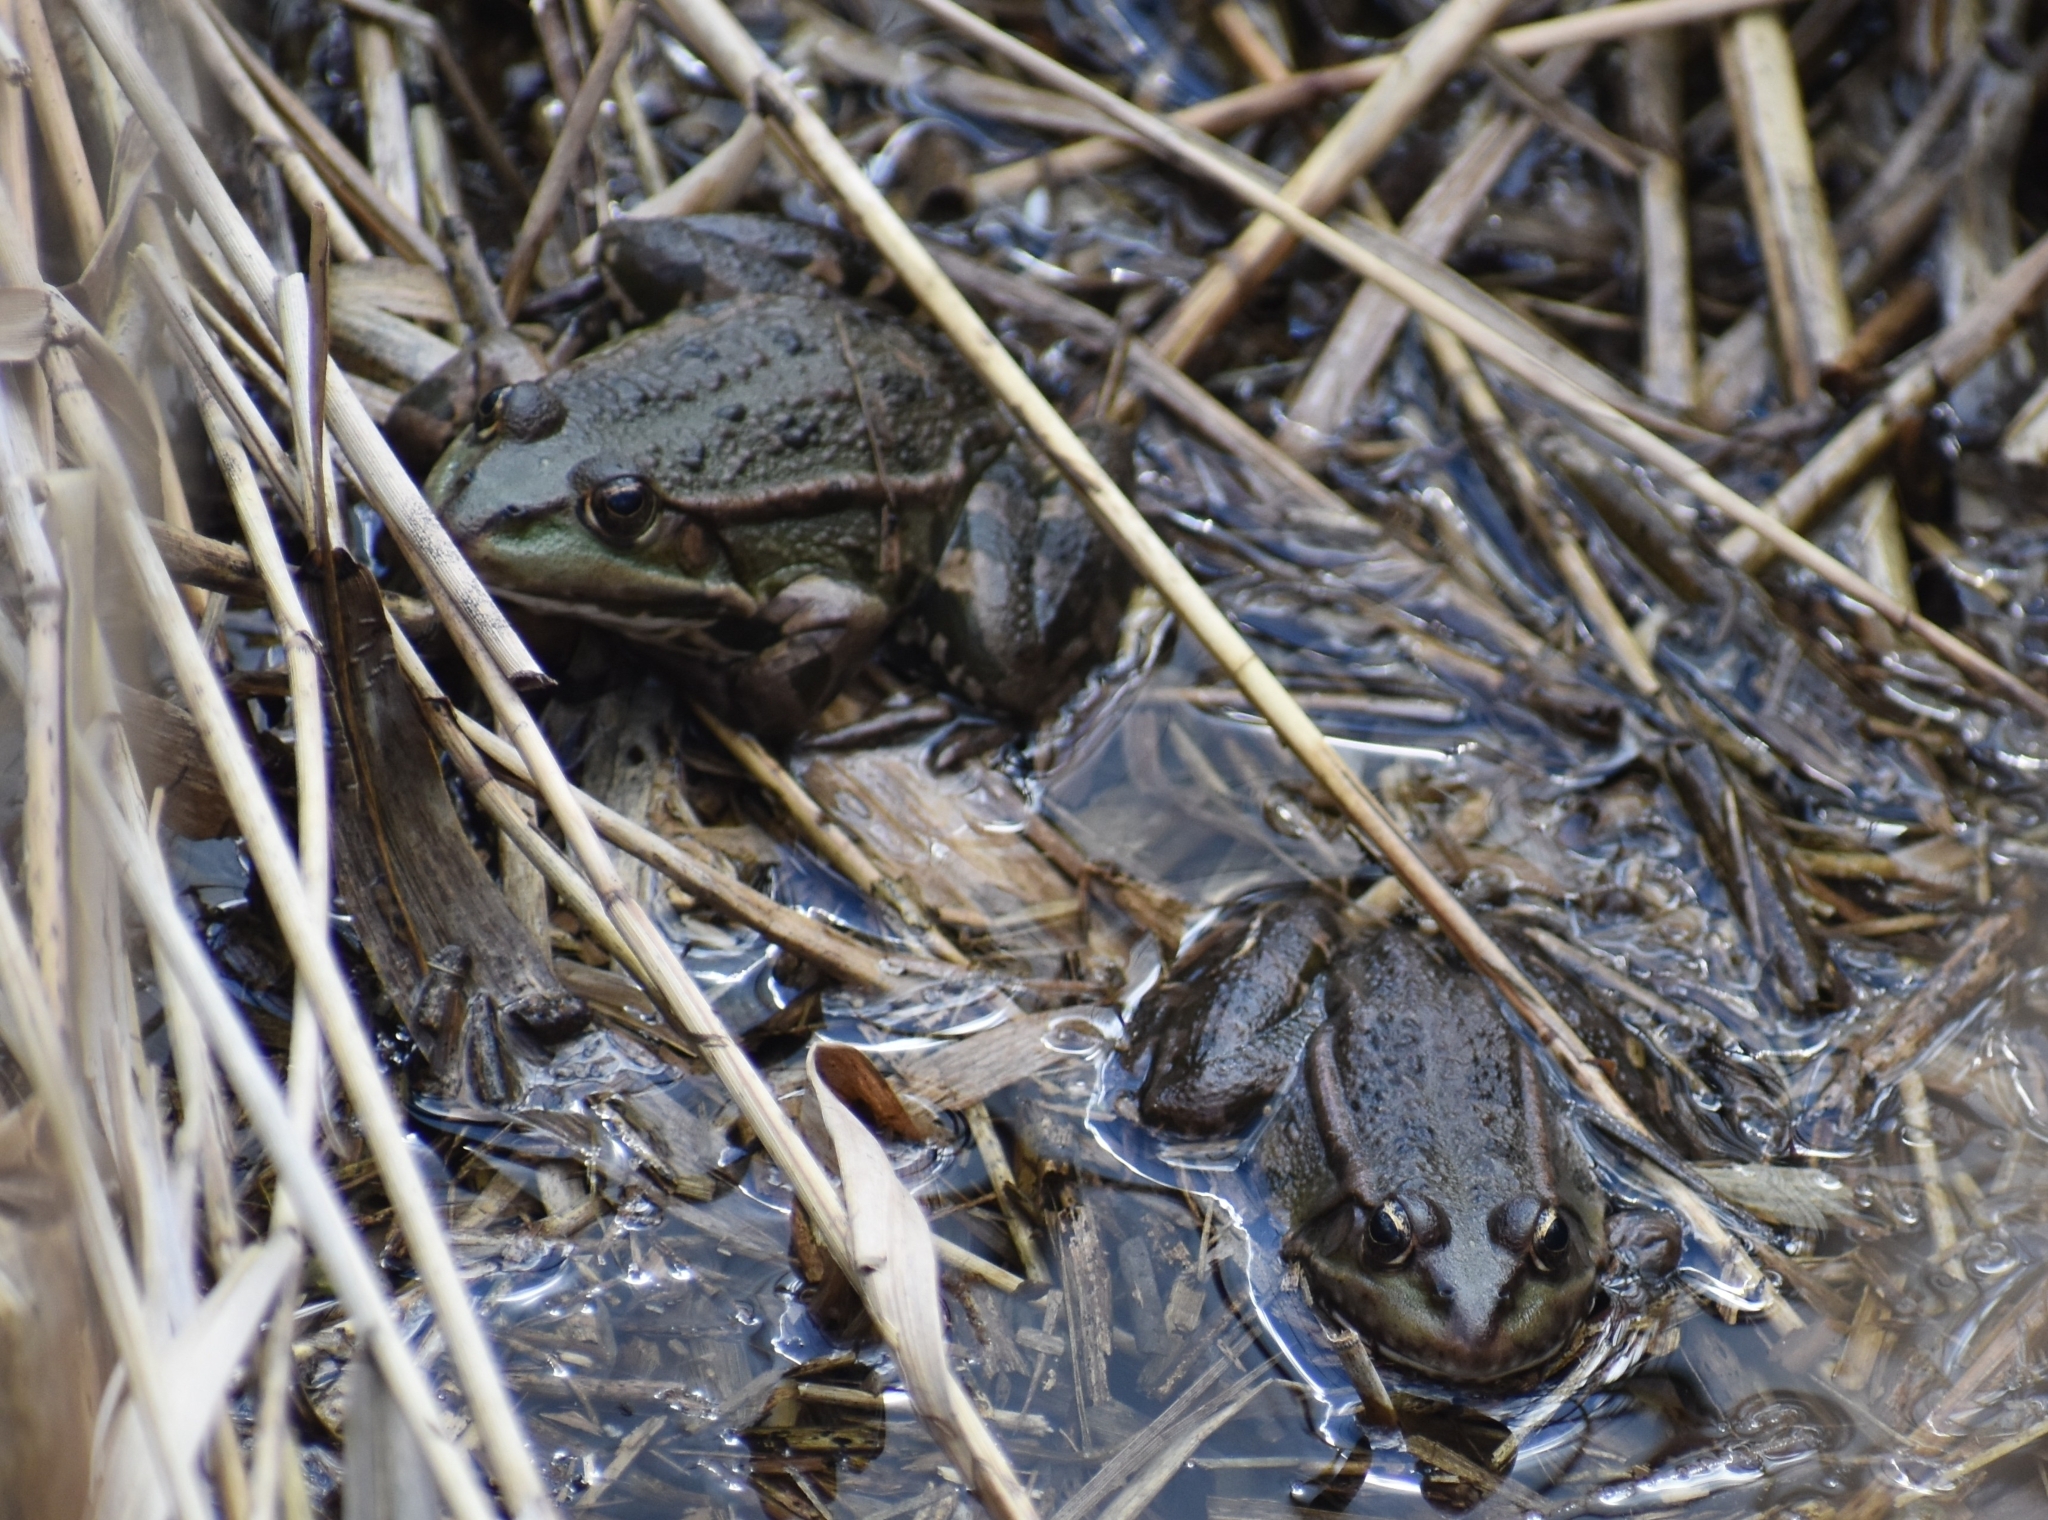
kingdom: Animalia
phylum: Chordata
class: Amphibia
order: Anura
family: Ranidae
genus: Pelophylax
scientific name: Pelophylax ridibundus
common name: Marsh frog
